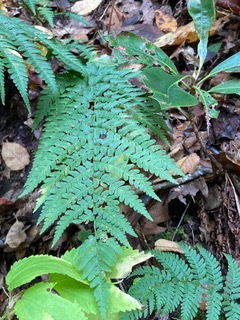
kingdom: Plantae
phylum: Tracheophyta
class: Polypodiopsida
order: Polypodiales
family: Dryopteridaceae
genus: Dryopteris
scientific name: Dryopteris marginalis
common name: Marginal wood fern
